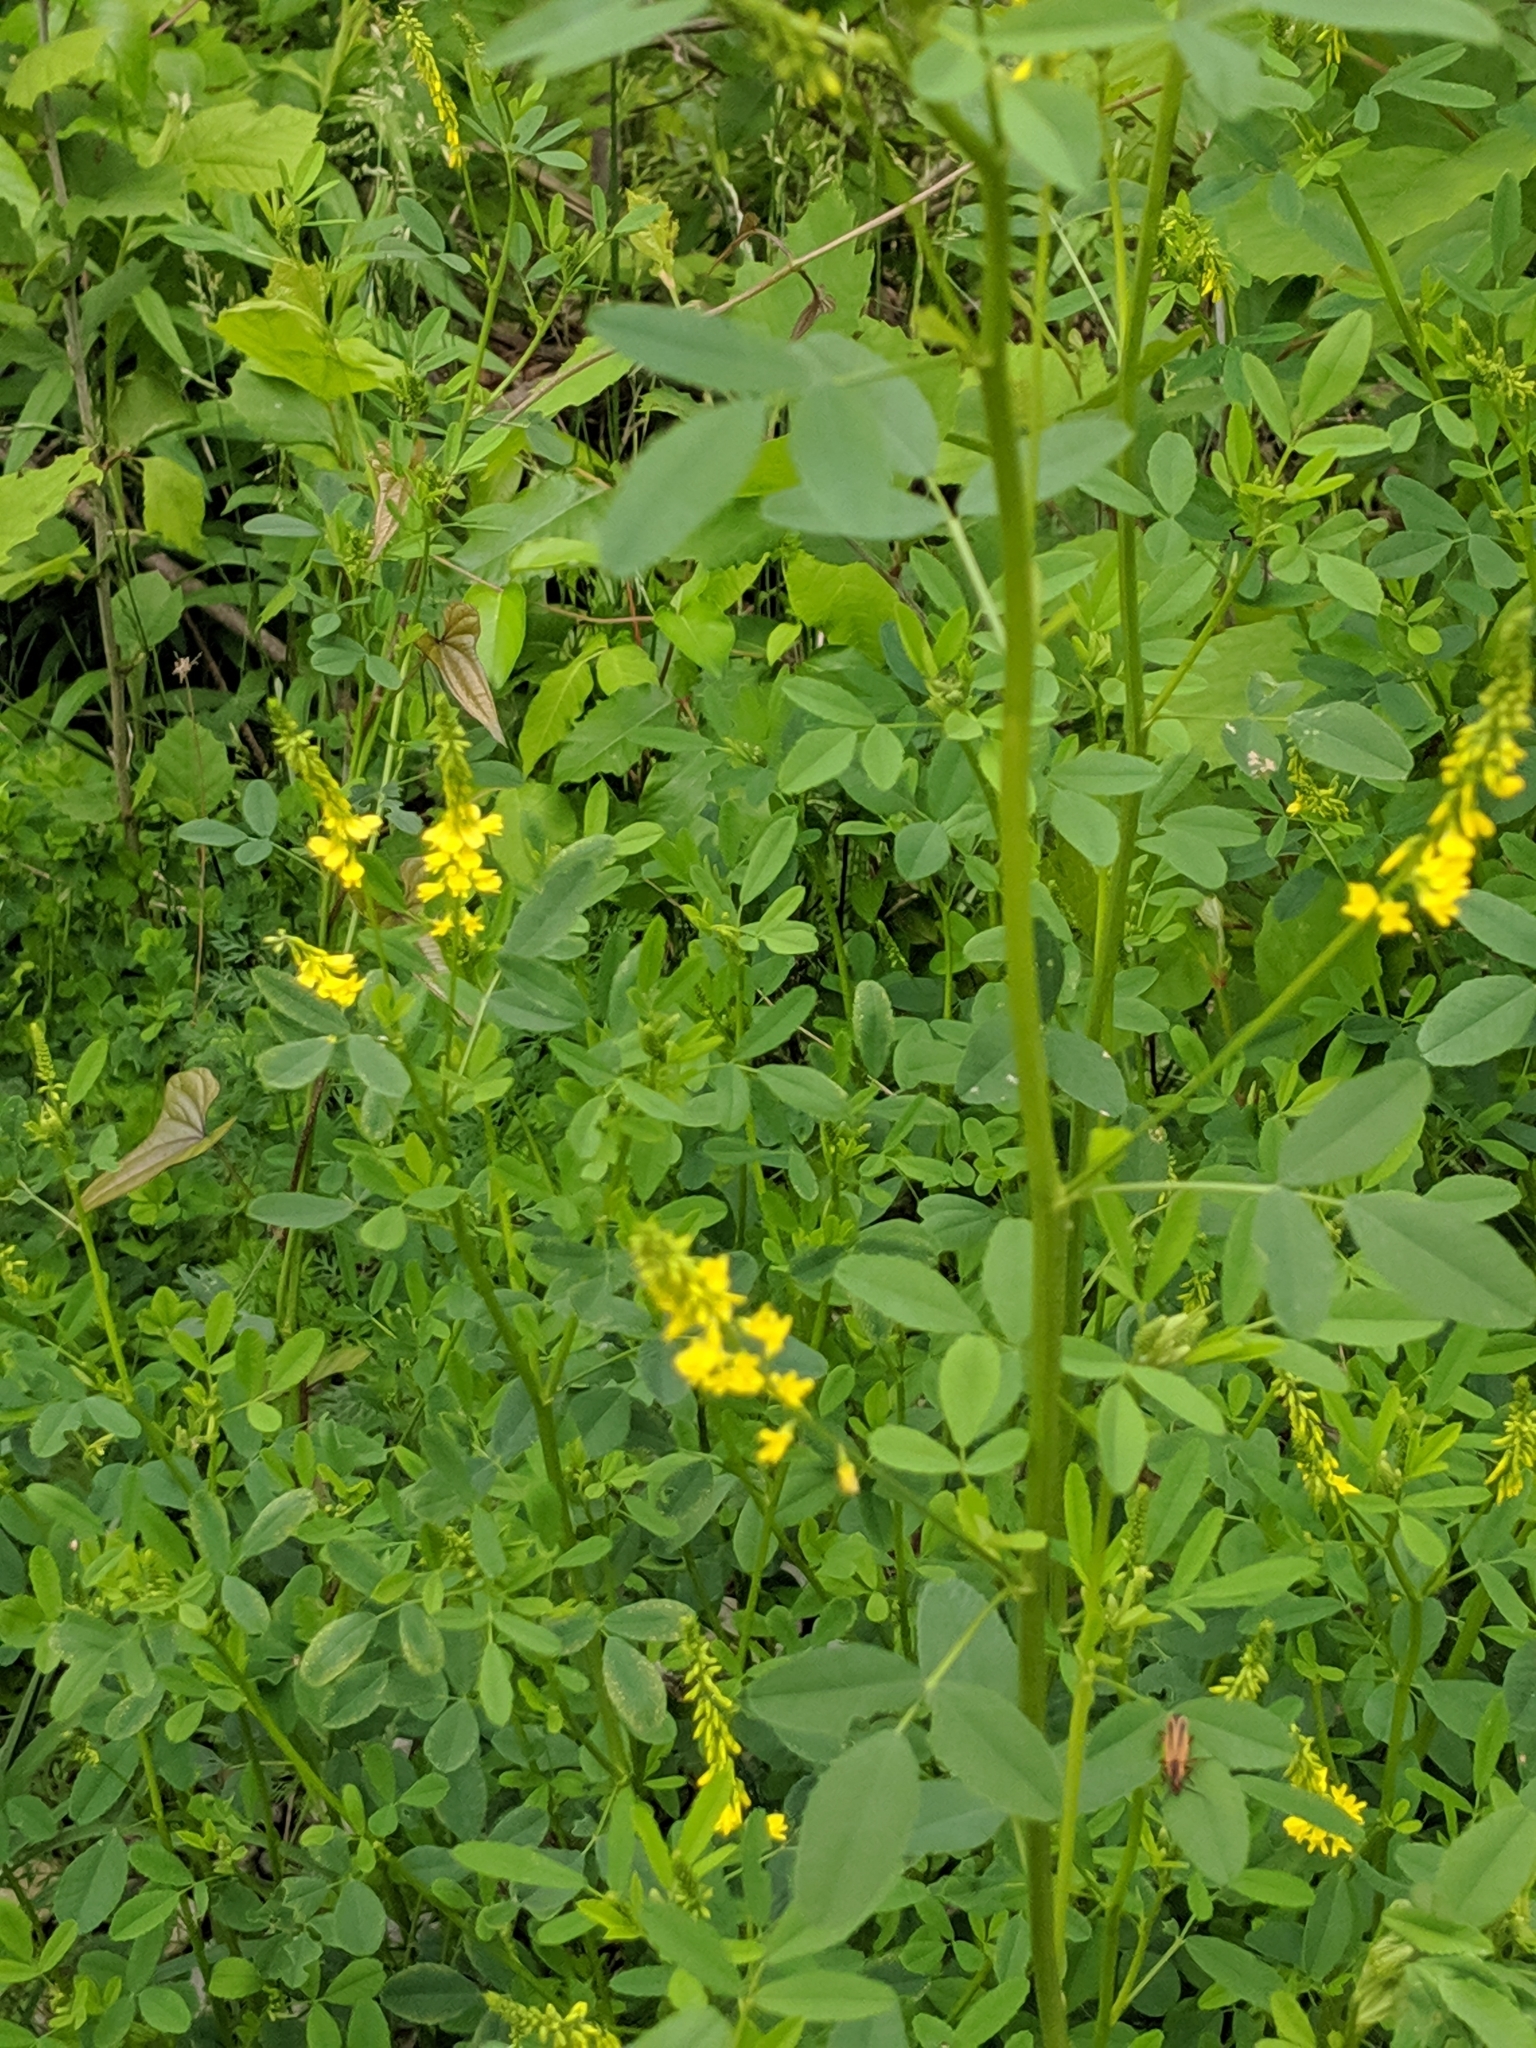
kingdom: Plantae
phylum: Tracheophyta
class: Magnoliopsida
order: Fabales
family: Fabaceae
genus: Melilotus
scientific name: Melilotus officinalis
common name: Sweetclover
